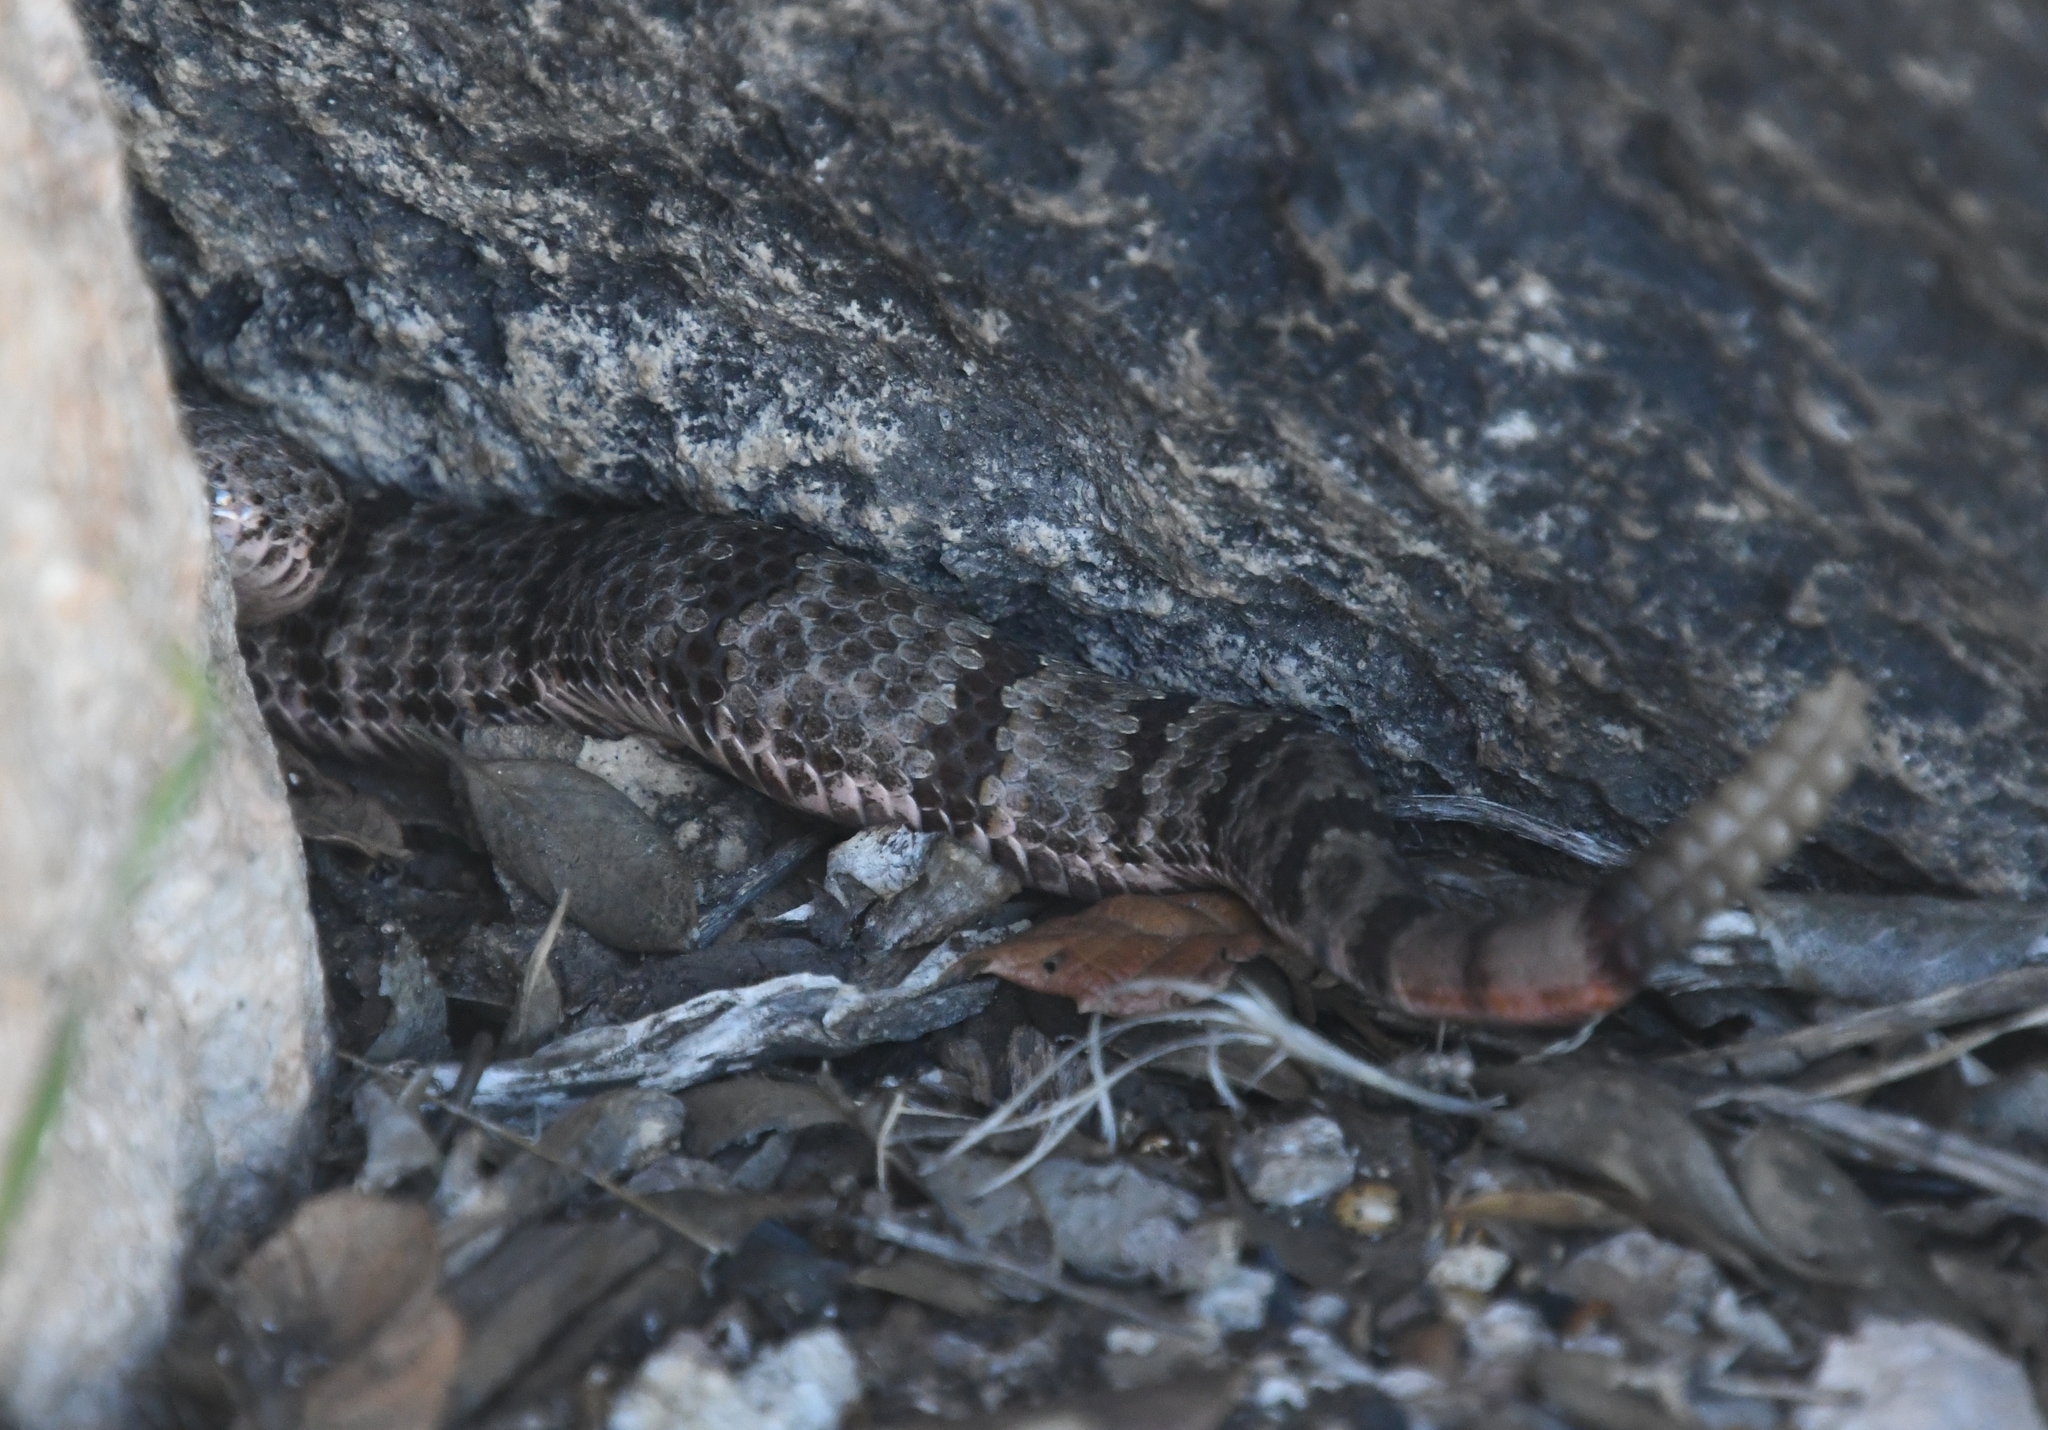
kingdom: Animalia
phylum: Chordata
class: Squamata
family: Viperidae
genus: Crotalus
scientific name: Crotalus lepidus
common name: Rock rattlesnake
